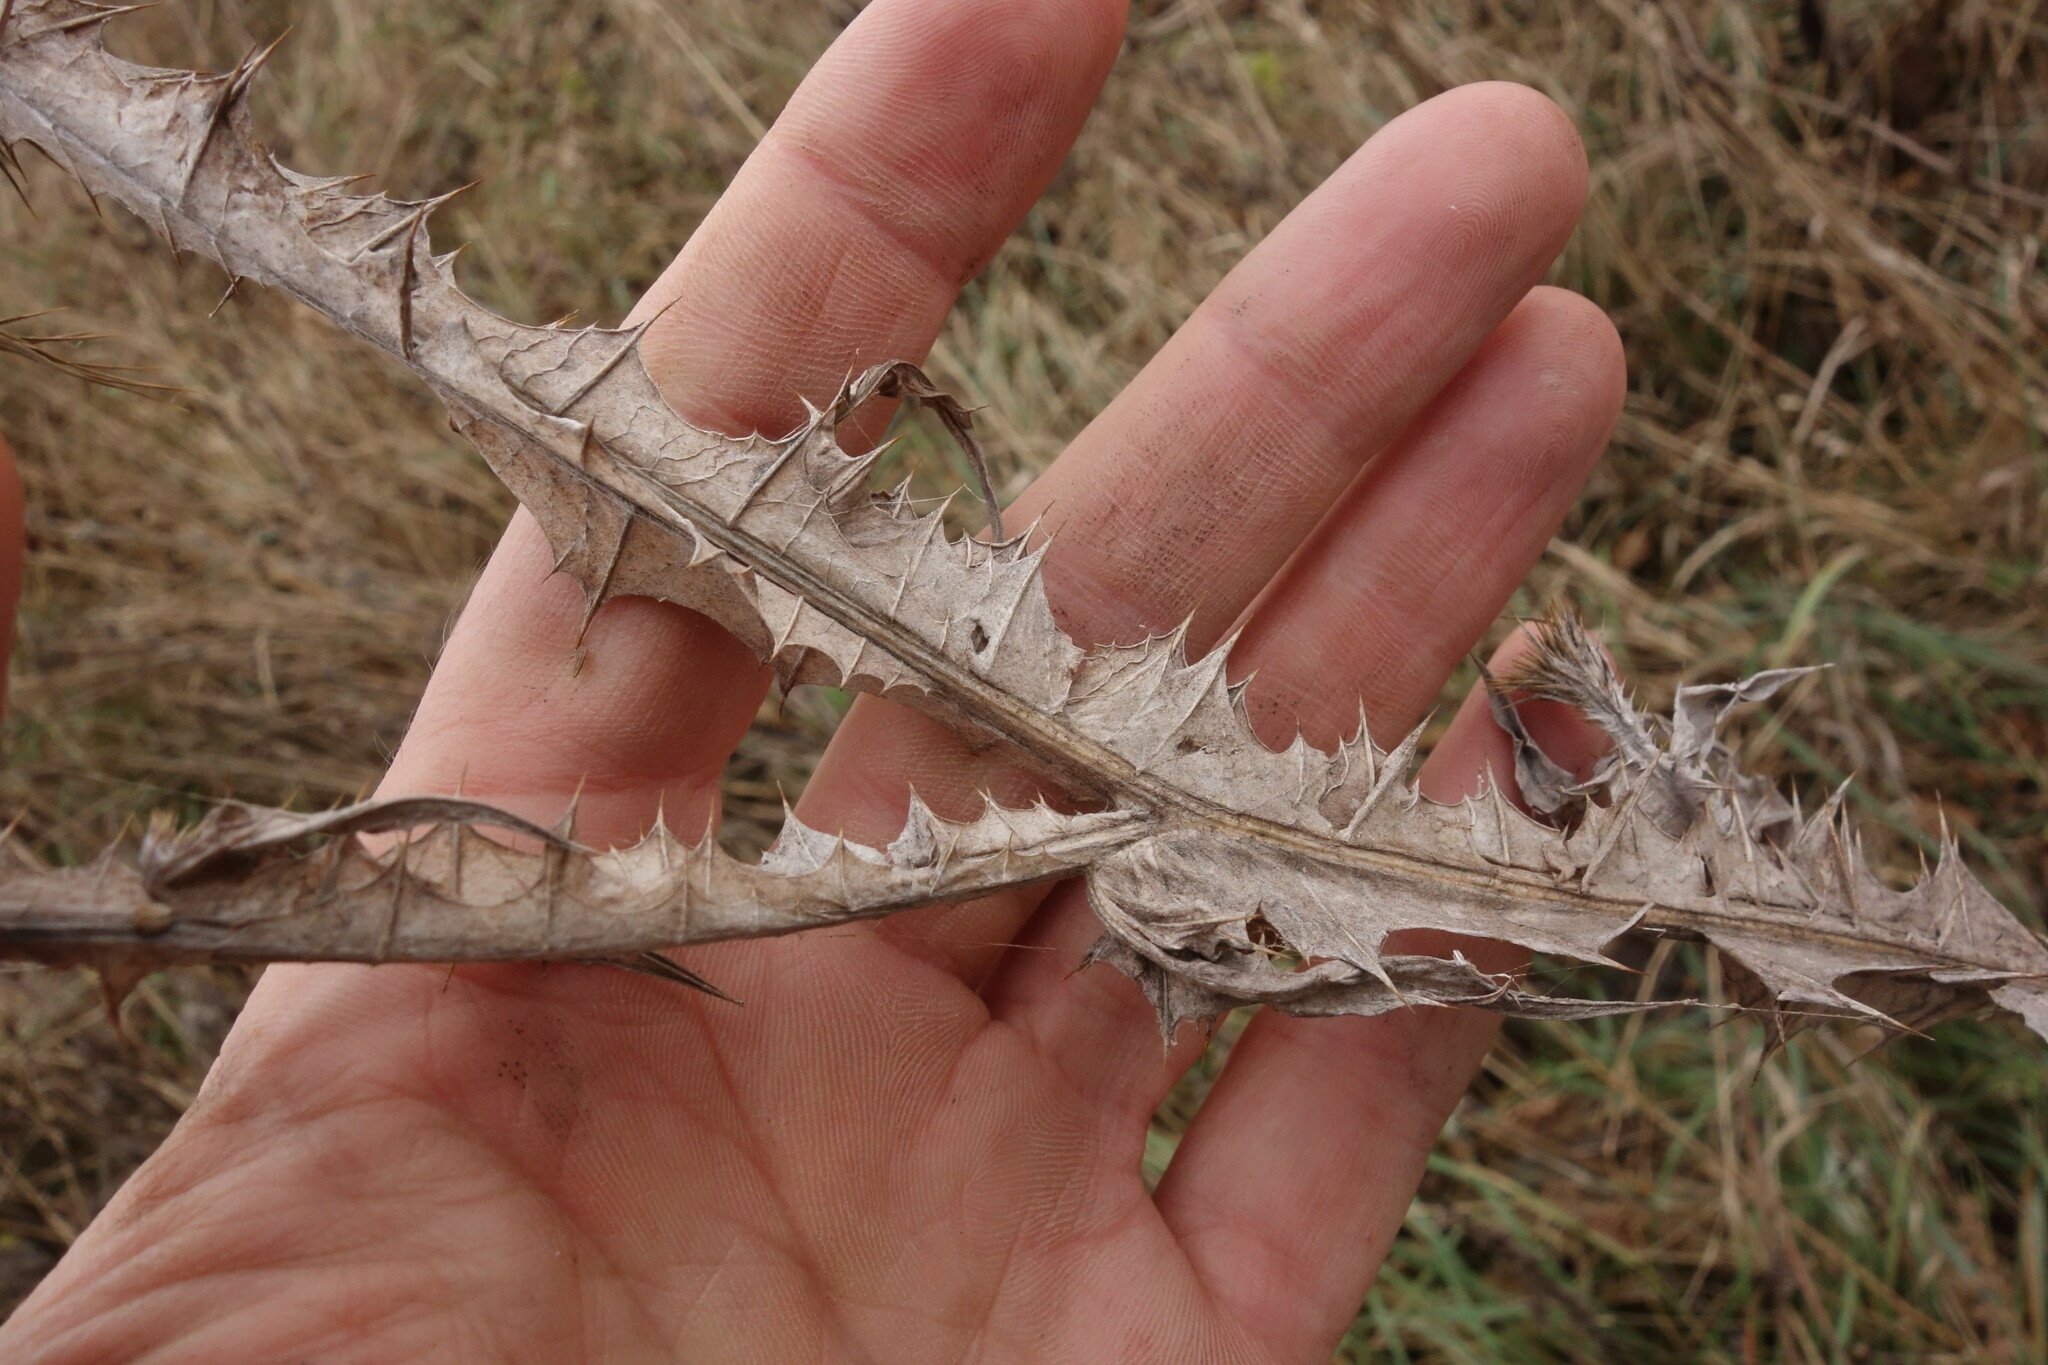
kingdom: Plantae
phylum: Tracheophyta
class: Magnoliopsida
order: Asterales
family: Asteraceae
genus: Onopordum
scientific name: Onopordum acanthium
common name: Scotch thistle
